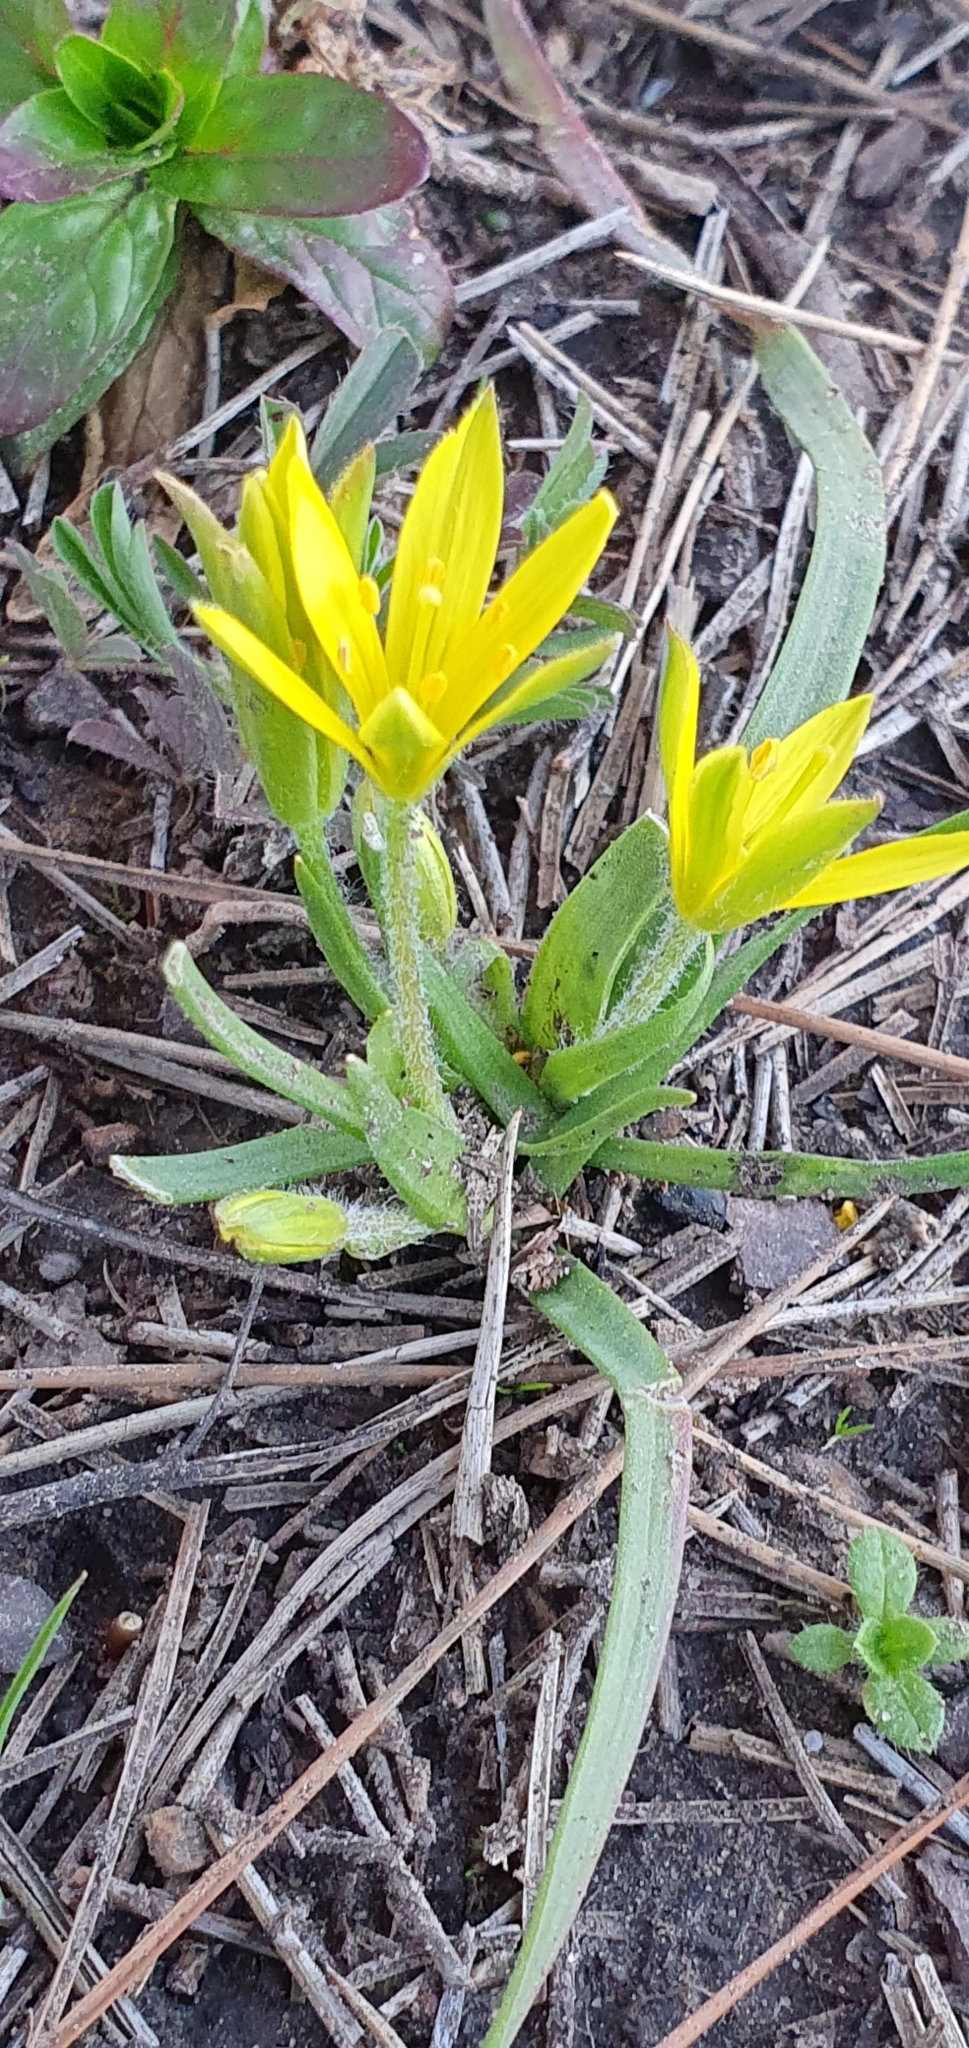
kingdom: Plantae
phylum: Tracheophyta
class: Liliopsida
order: Liliales
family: Liliaceae
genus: Gagea
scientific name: Gagea granatellii
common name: Granatelli’s gagea
